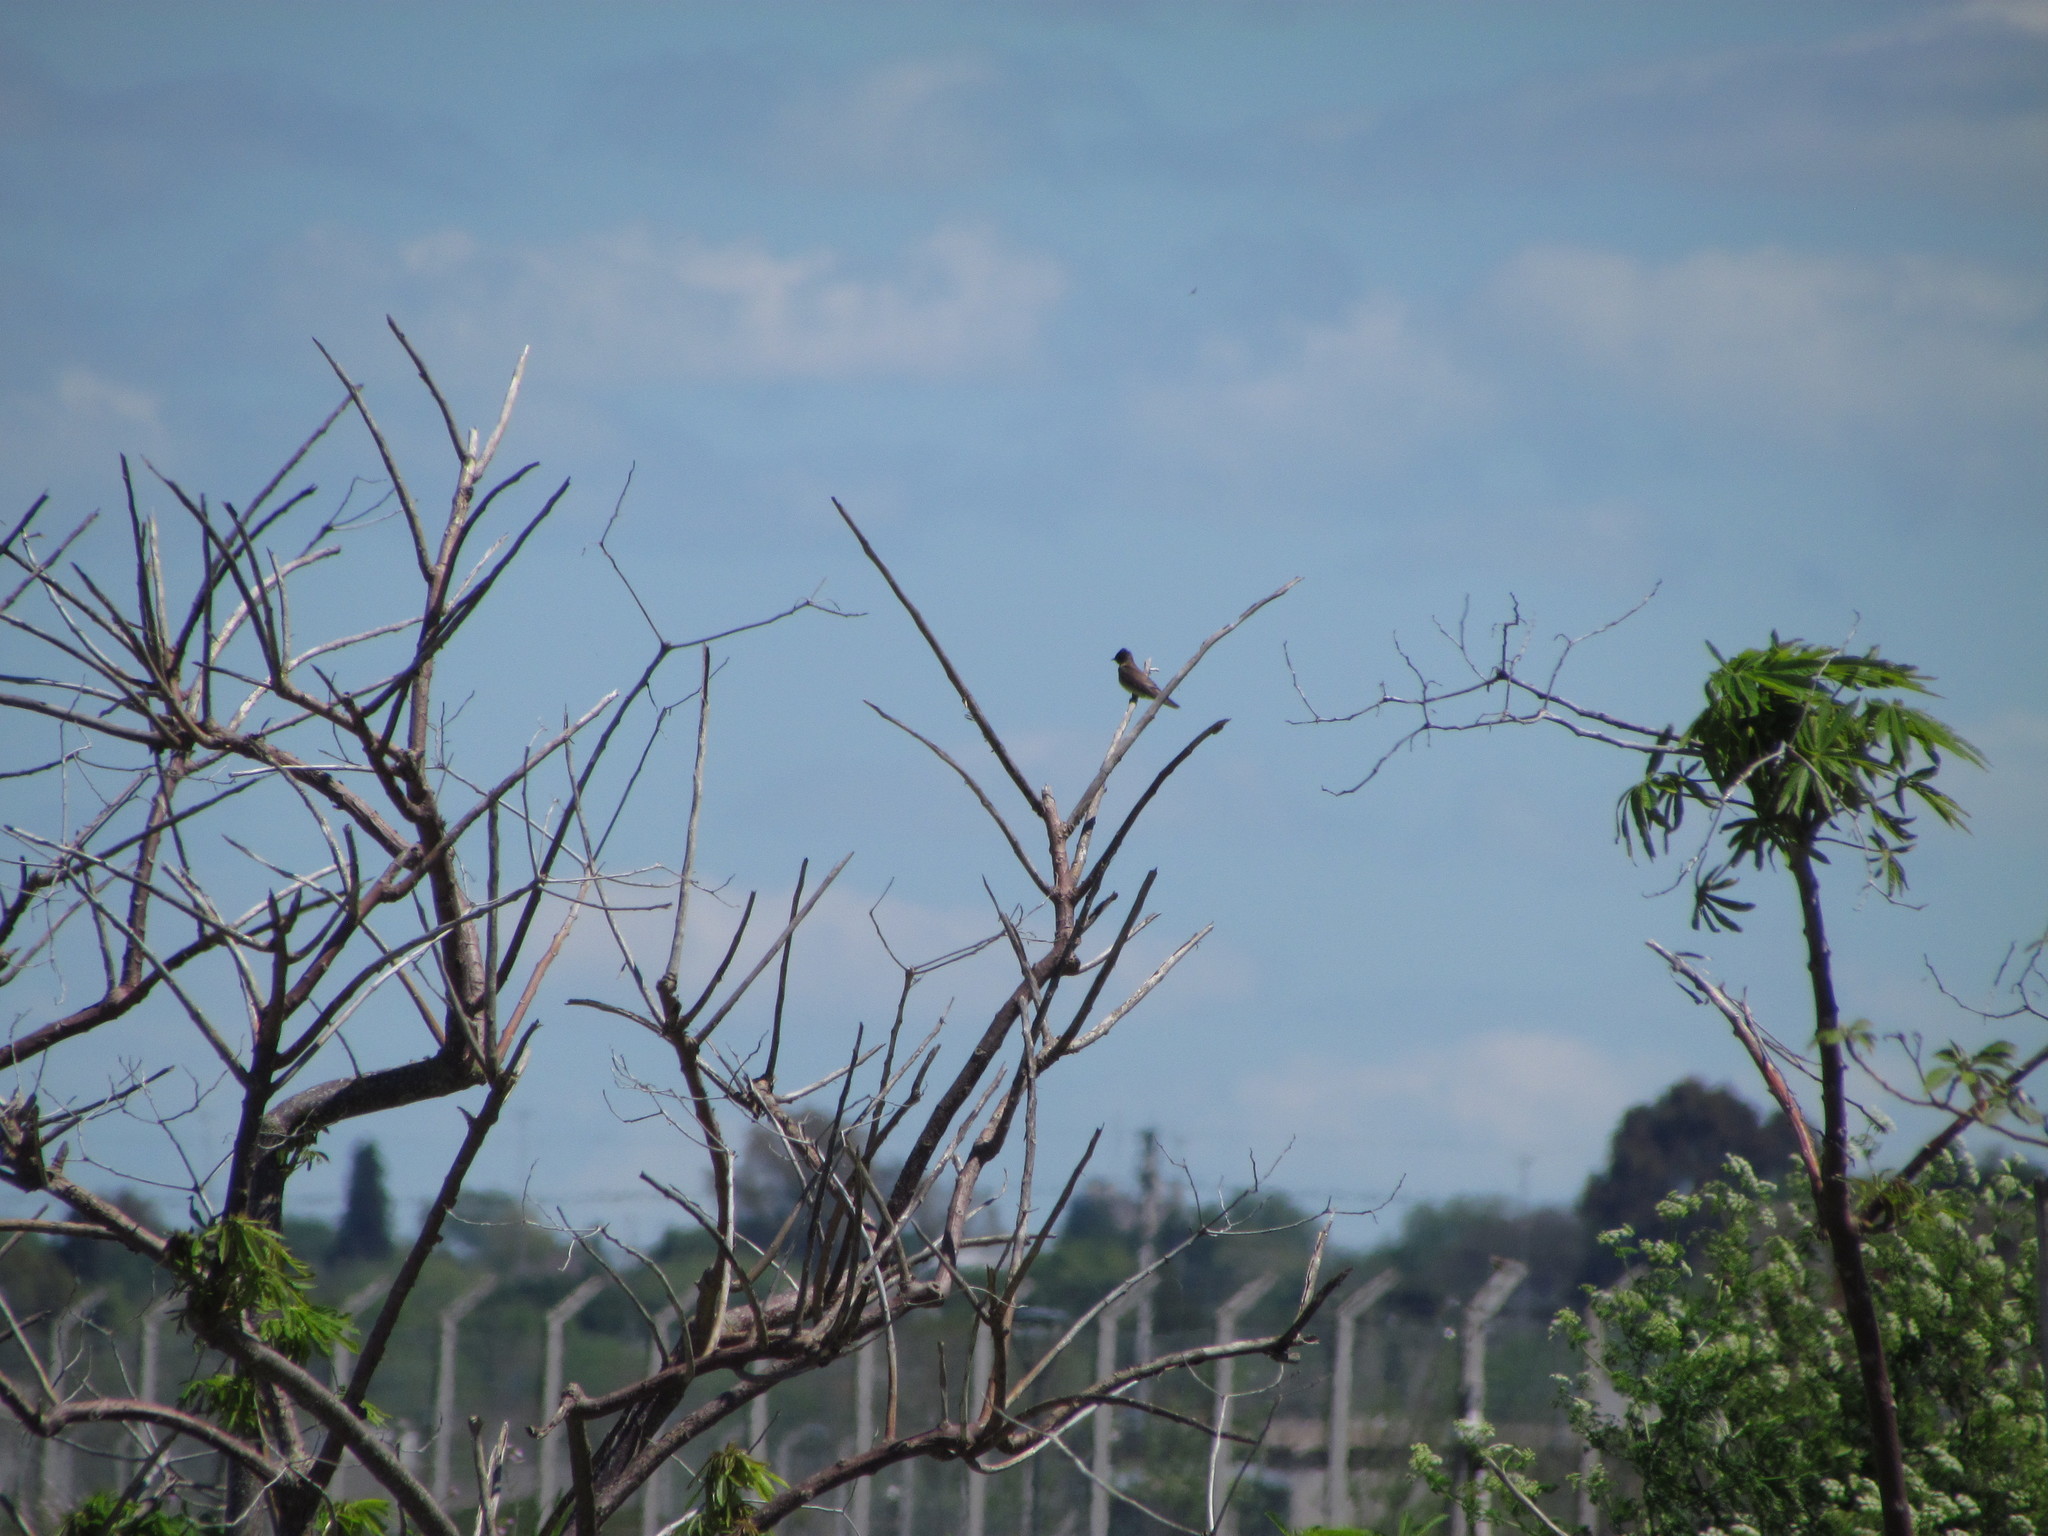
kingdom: Animalia
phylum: Chordata
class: Aves
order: Passeriformes
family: Hirundinidae
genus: Stelgidopteryx
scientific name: Stelgidopteryx ruficollis
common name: Southern rough-winged swallow
